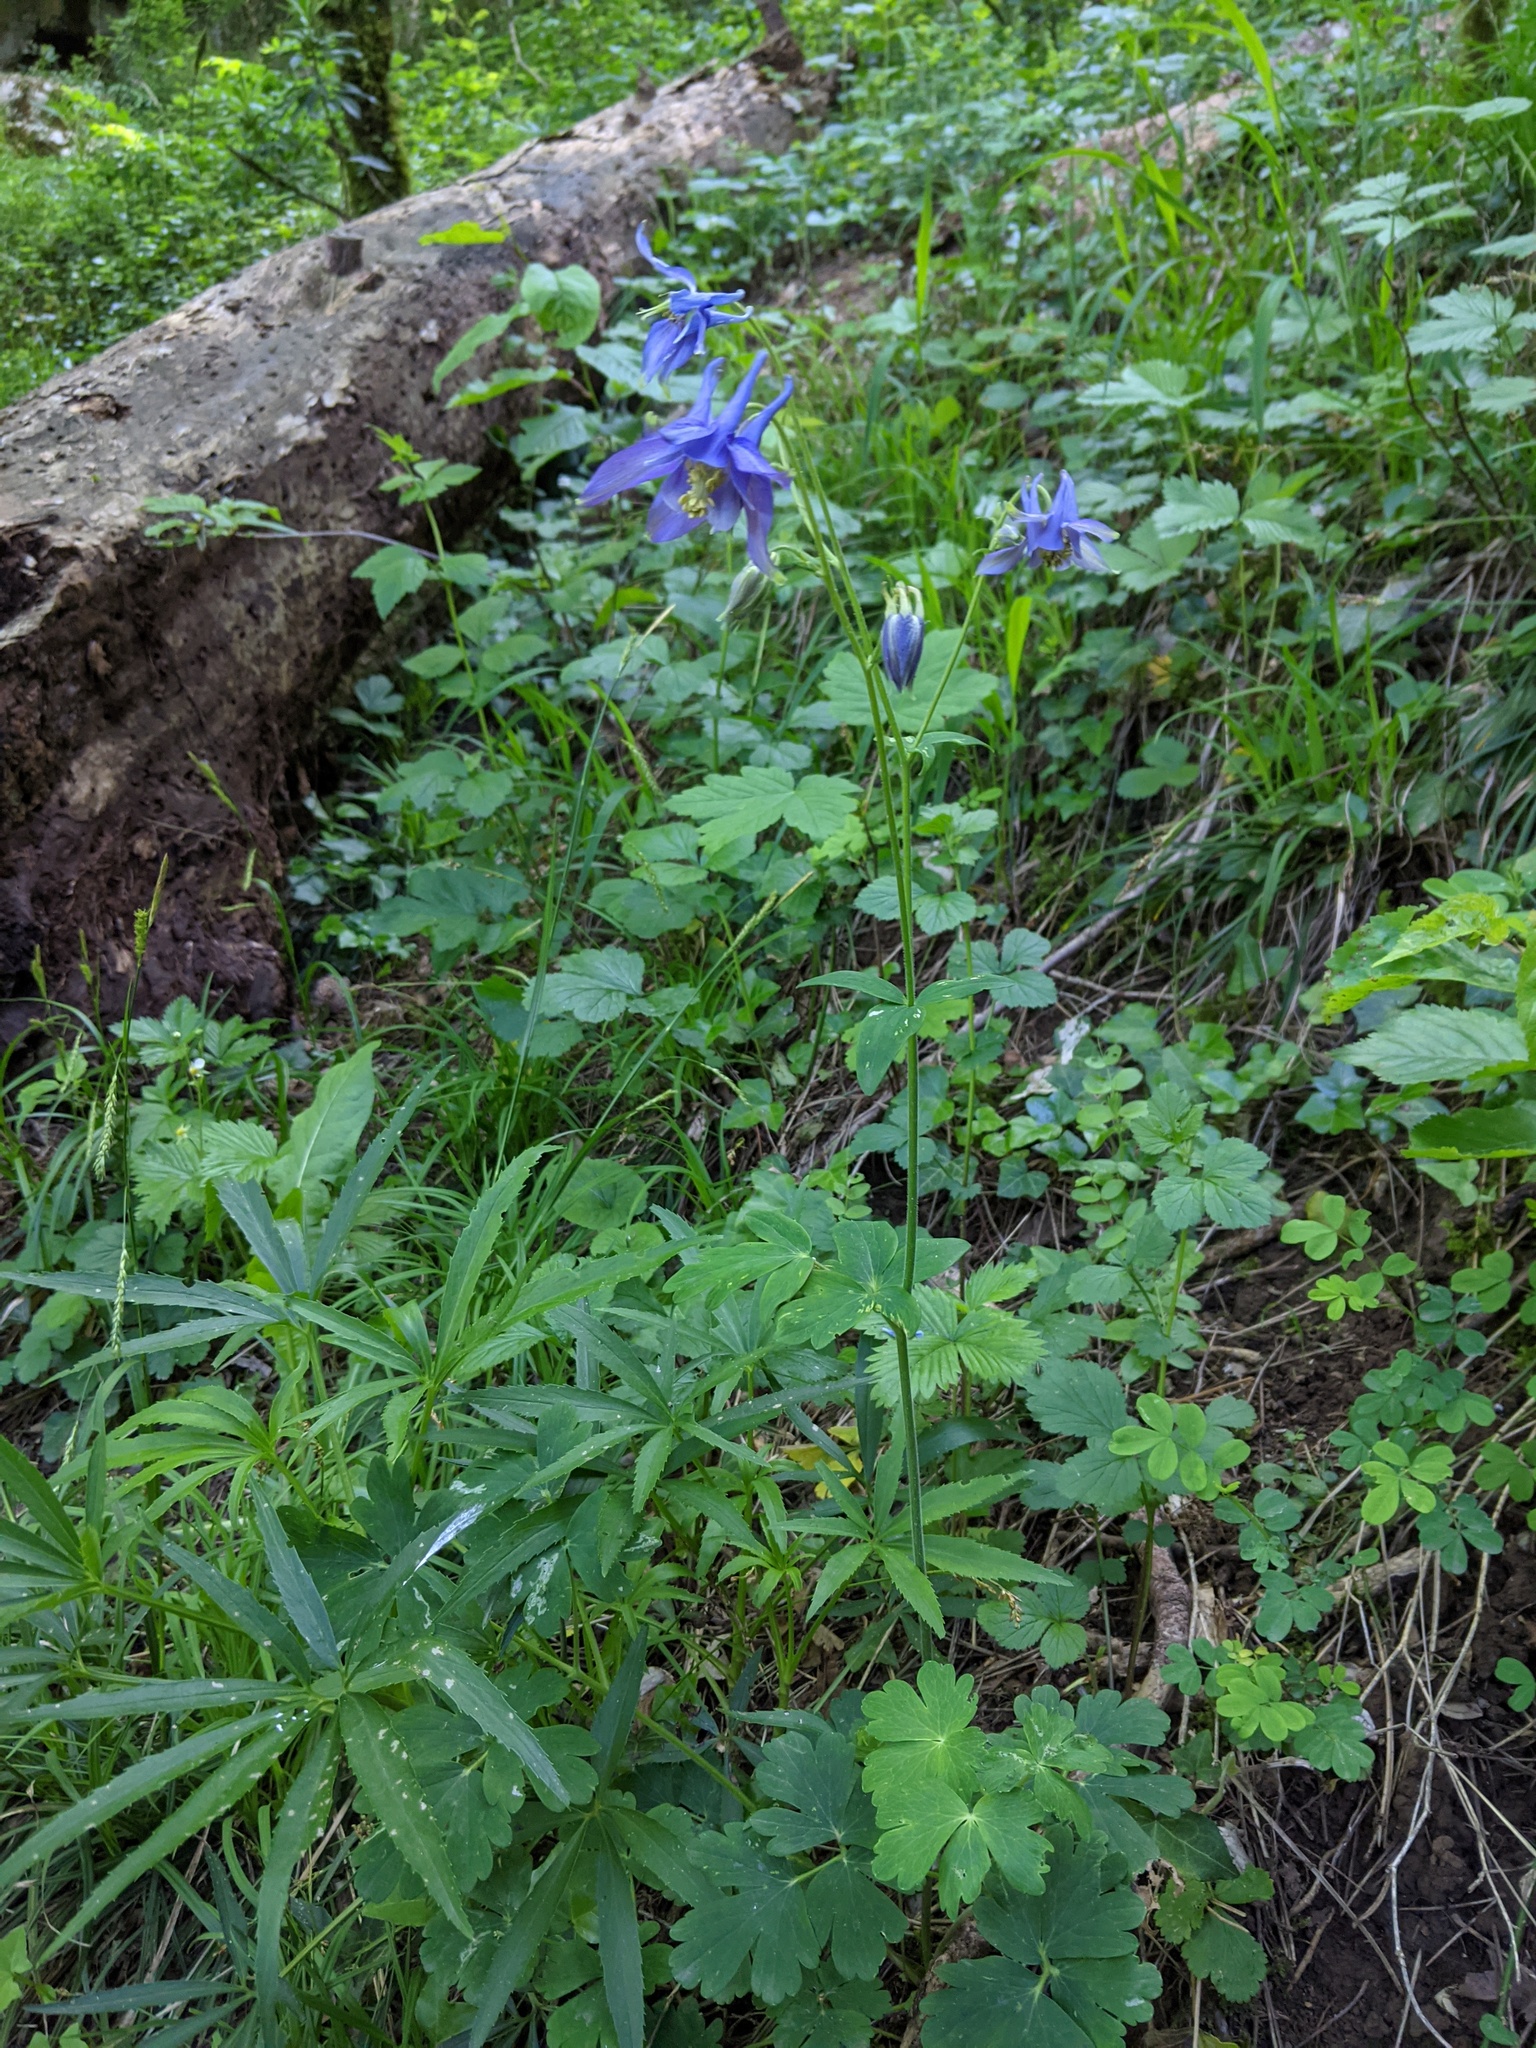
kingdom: Plantae
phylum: Tracheophyta
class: Magnoliopsida
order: Ranunculales
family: Ranunculaceae
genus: Aquilegia
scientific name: Aquilegia vulgaris
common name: Columbine
